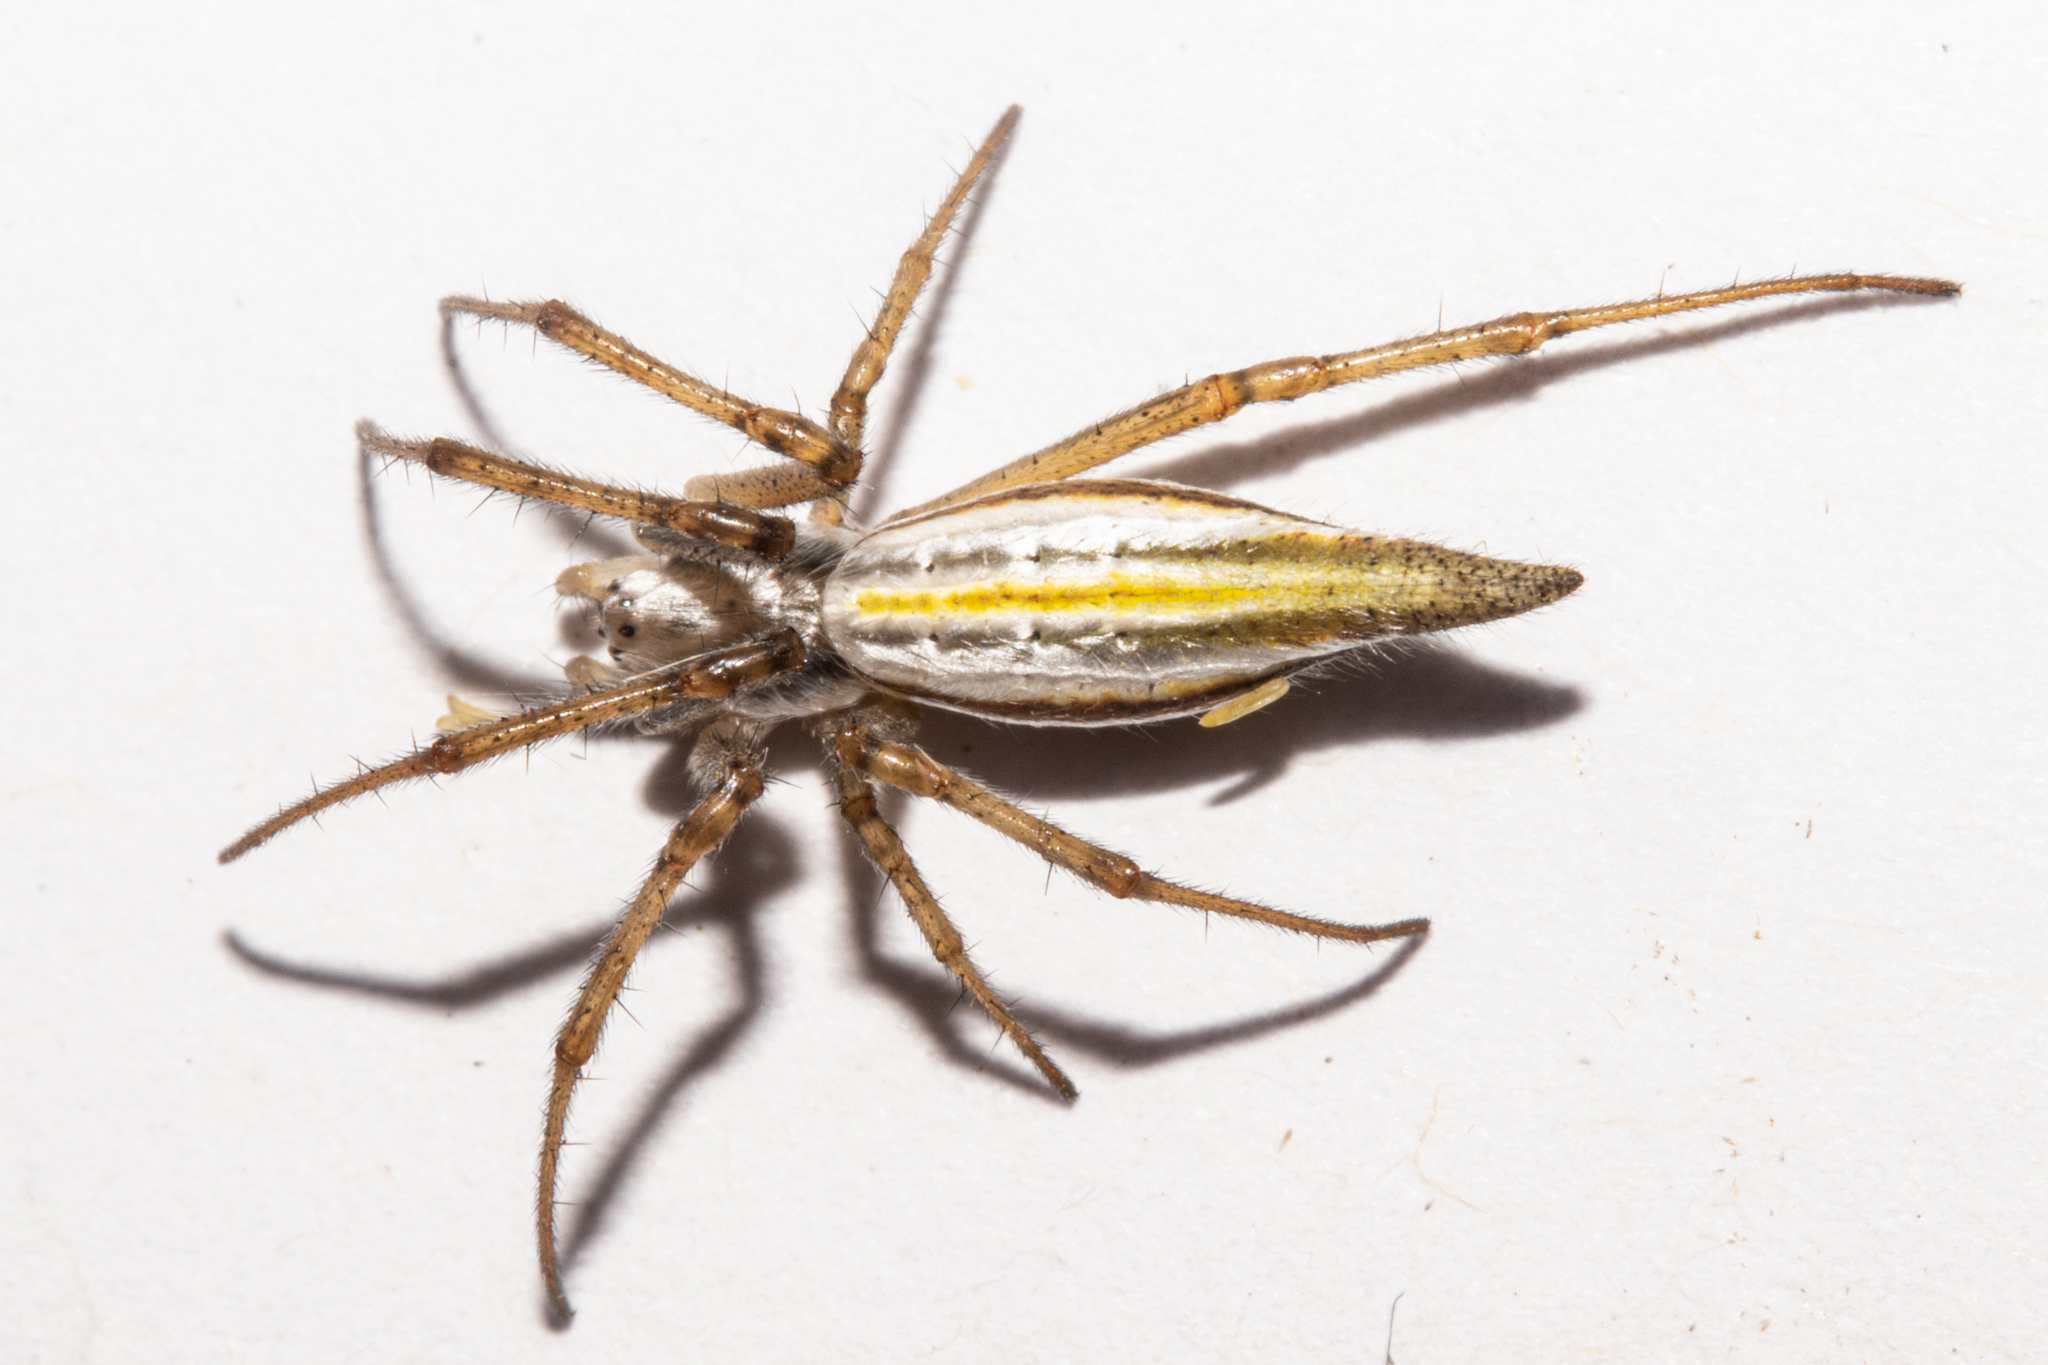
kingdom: Animalia
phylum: Arthropoda
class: Arachnida
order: Araneae
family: Araneidae
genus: Argiope
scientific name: Argiope protensa
